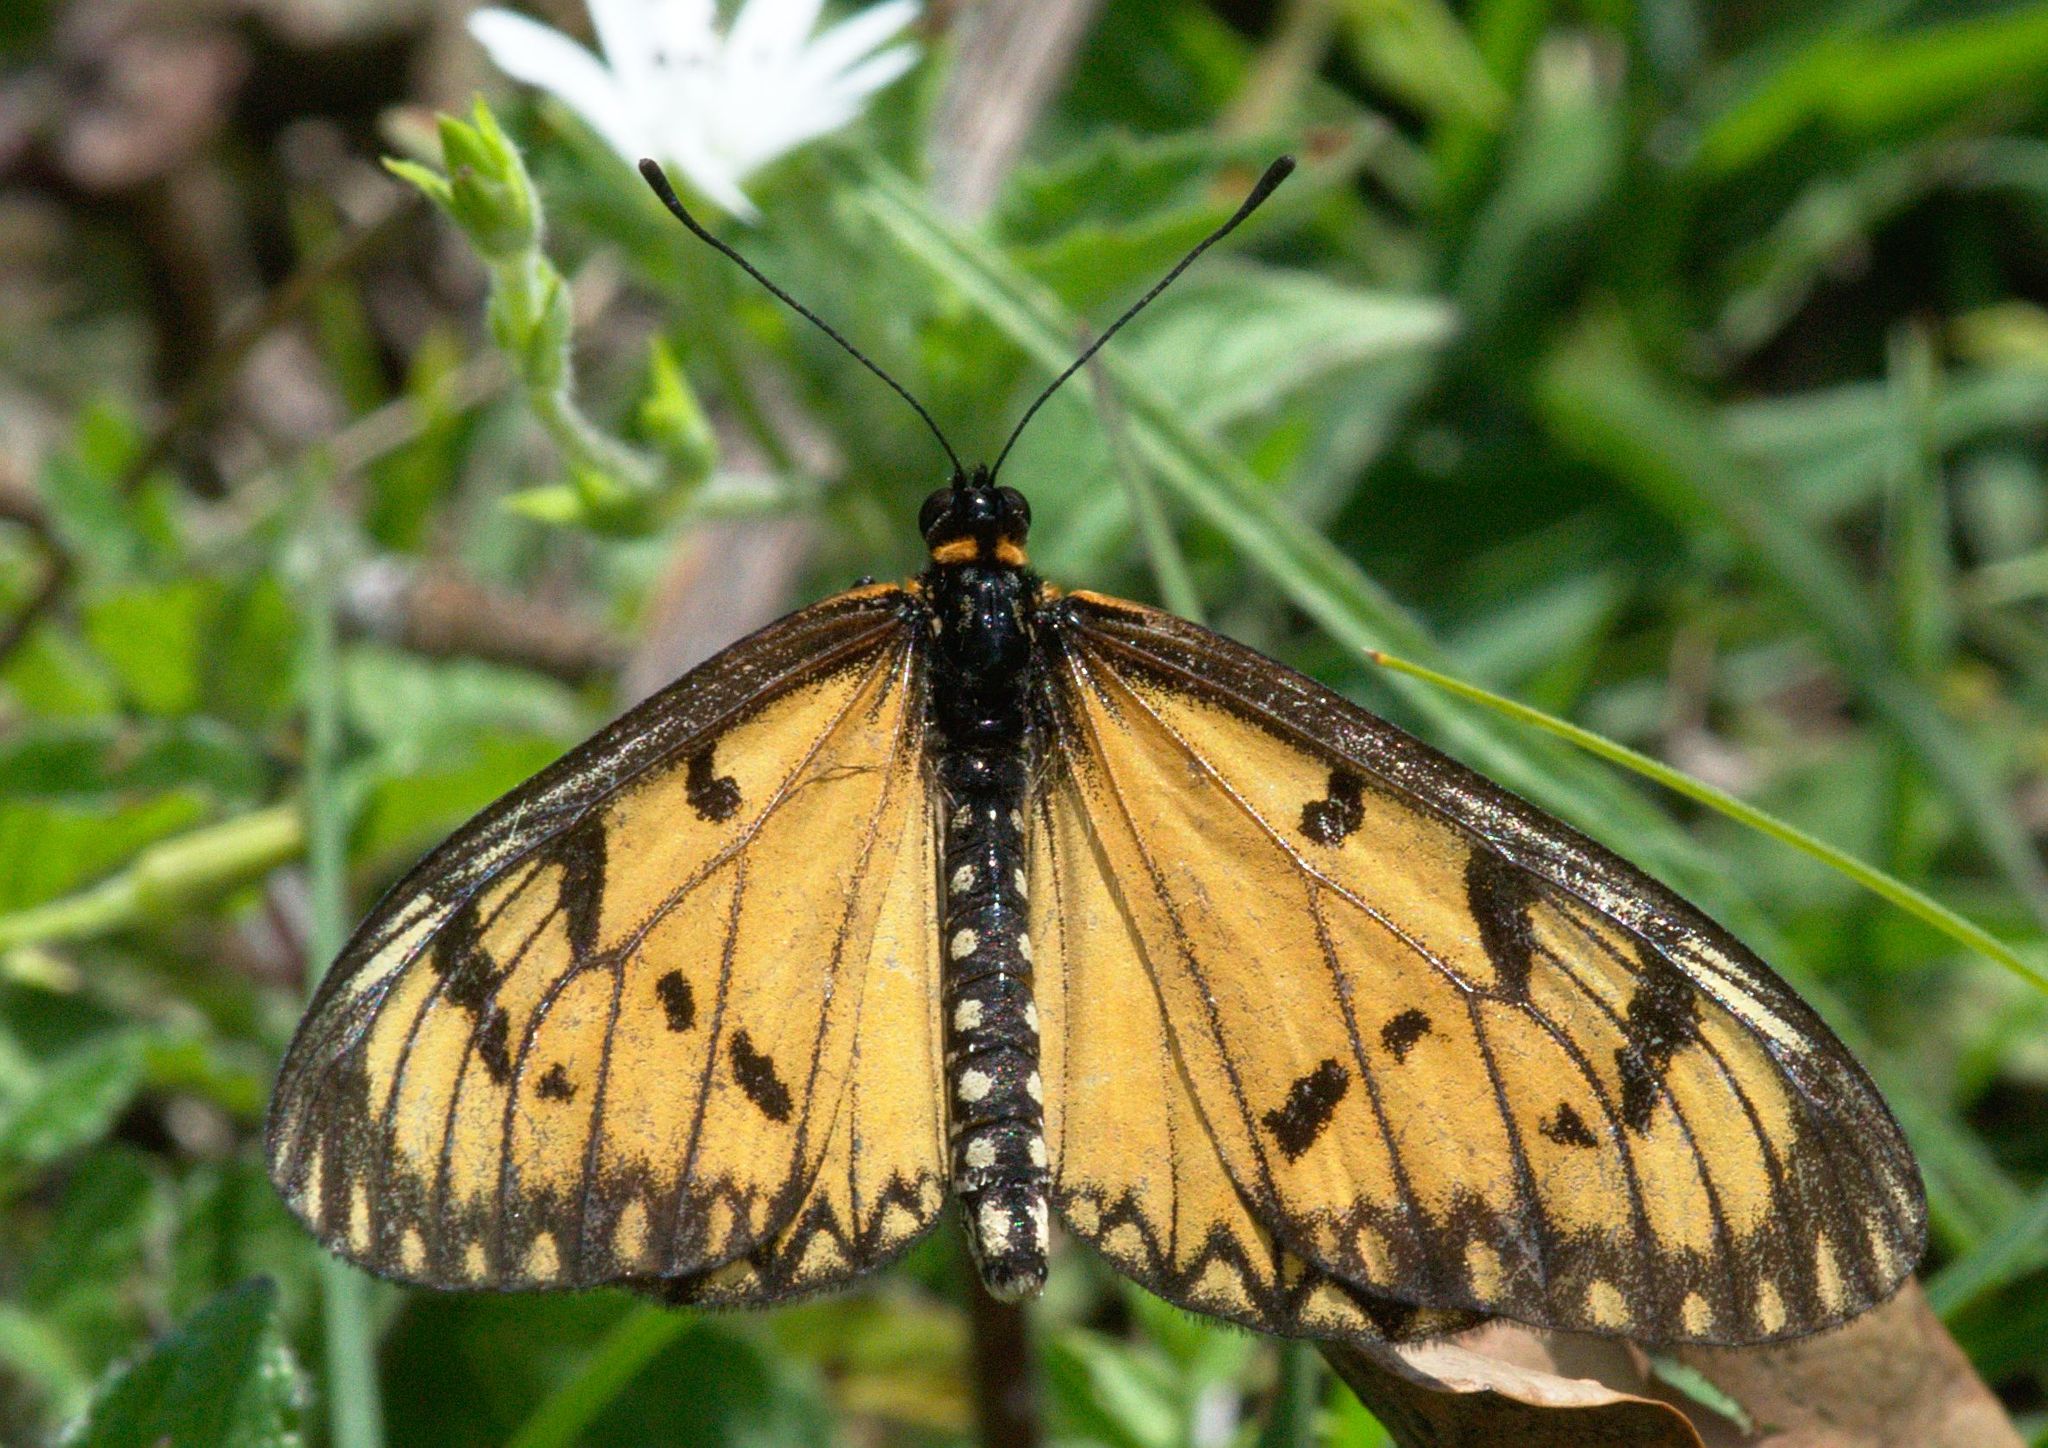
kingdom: Animalia
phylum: Arthropoda
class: Insecta
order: Lepidoptera
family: Nymphalidae
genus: Acraea
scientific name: Acraea Telchinia issoria
